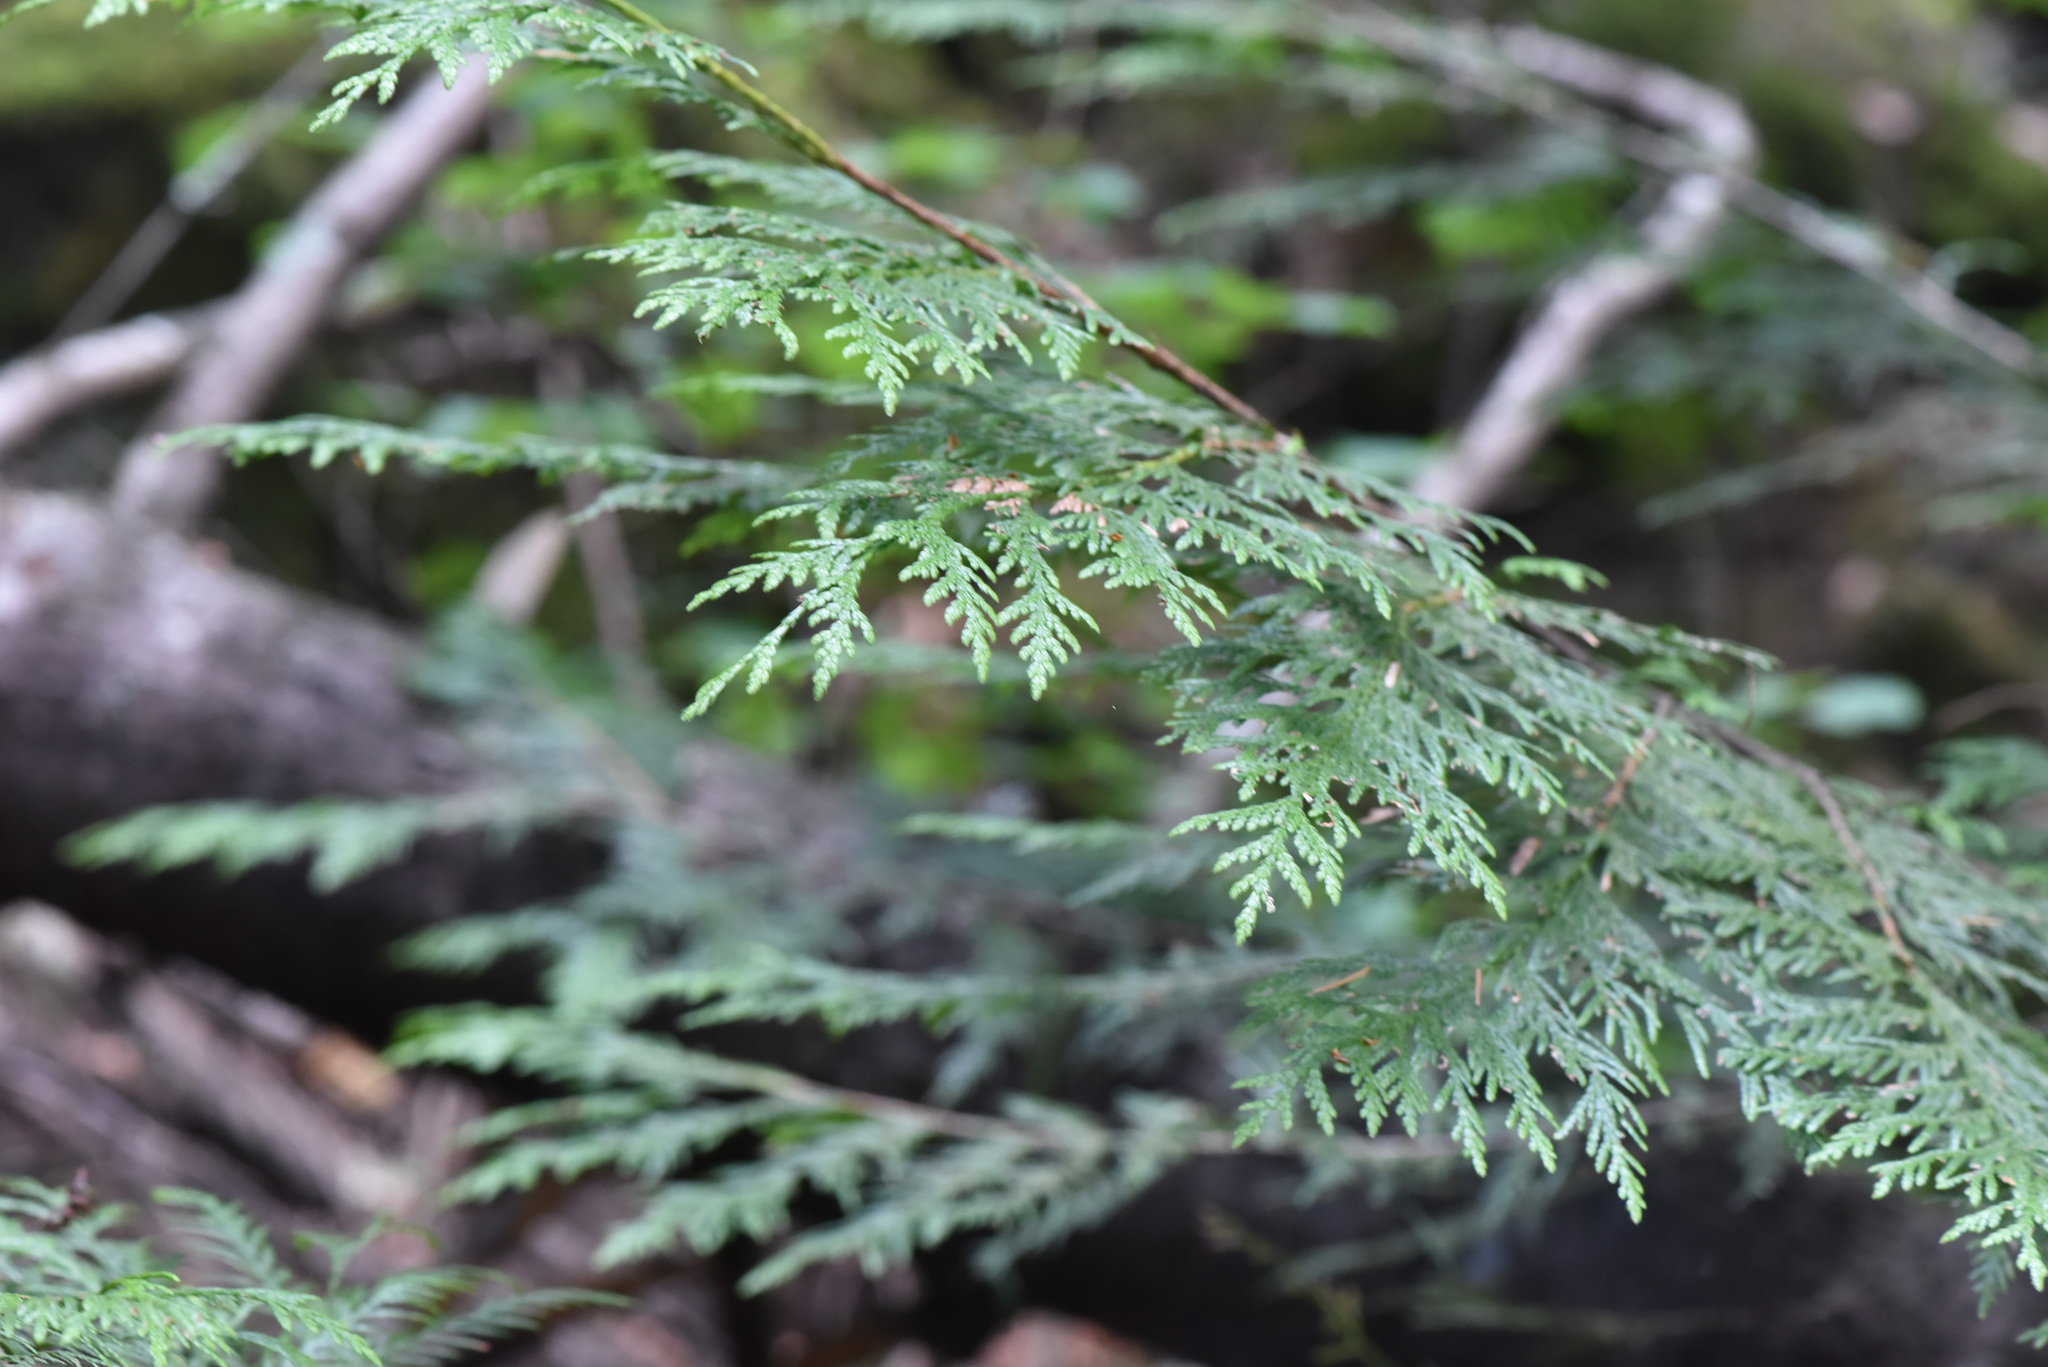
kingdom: Plantae
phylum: Tracheophyta
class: Pinopsida
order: Pinales
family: Cupressaceae
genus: Thuja
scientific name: Thuja plicata
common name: Western red-cedar
